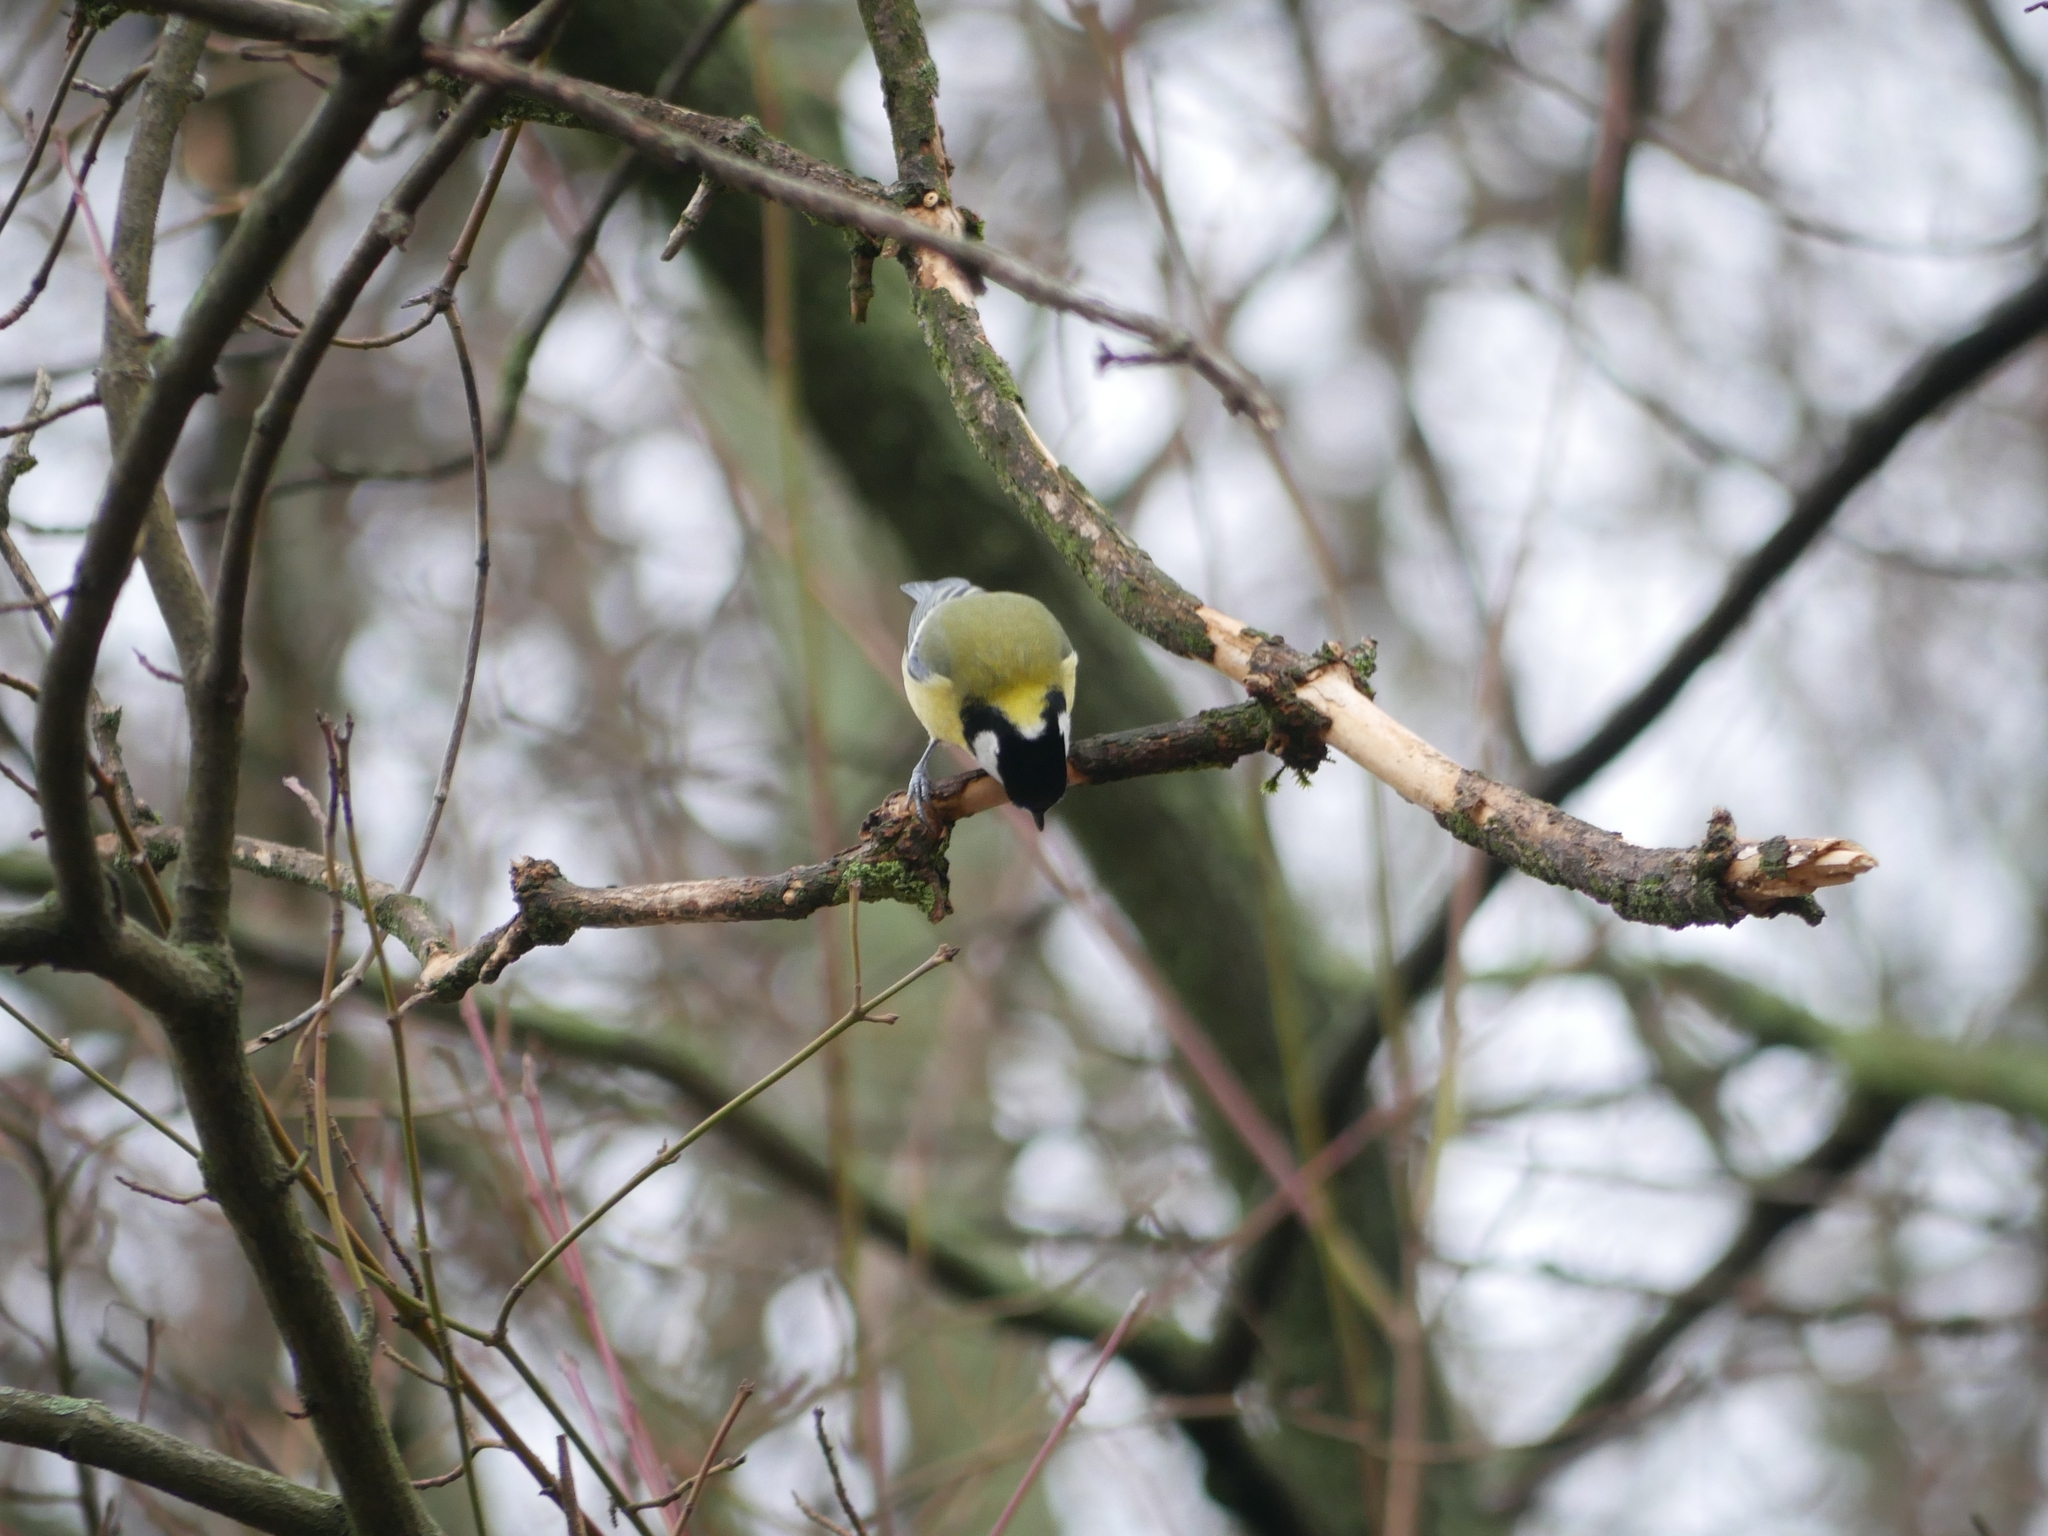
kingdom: Animalia
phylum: Chordata
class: Aves
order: Passeriformes
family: Paridae
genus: Parus
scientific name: Parus major
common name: Great tit
